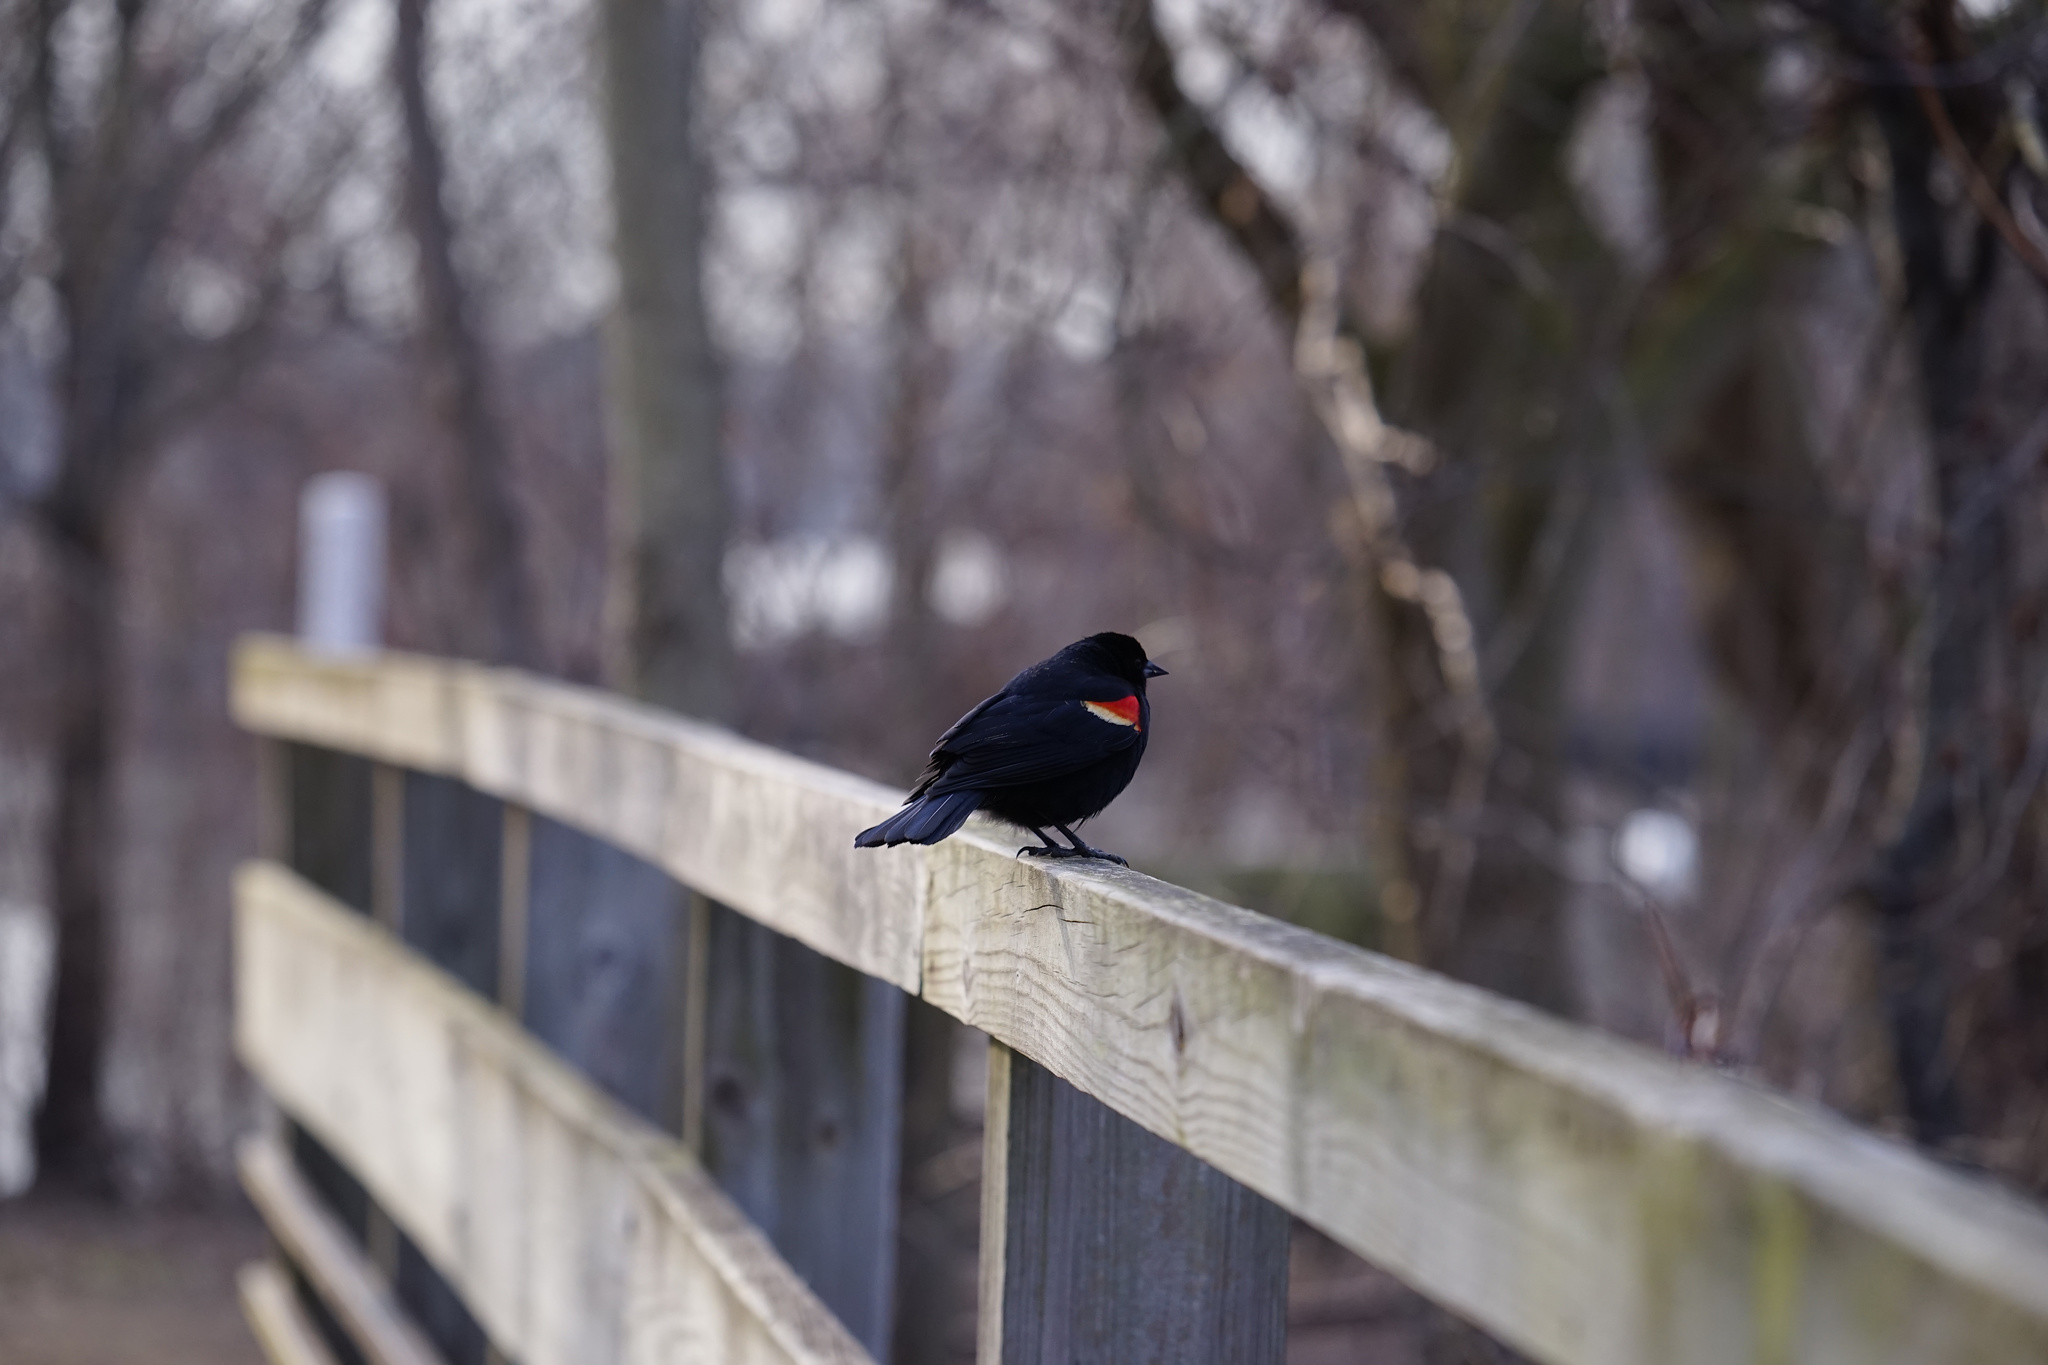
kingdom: Animalia
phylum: Chordata
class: Aves
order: Passeriformes
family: Icteridae
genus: Agelaius
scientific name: Agelaius phoeniceus
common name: Red-winged blackbird
